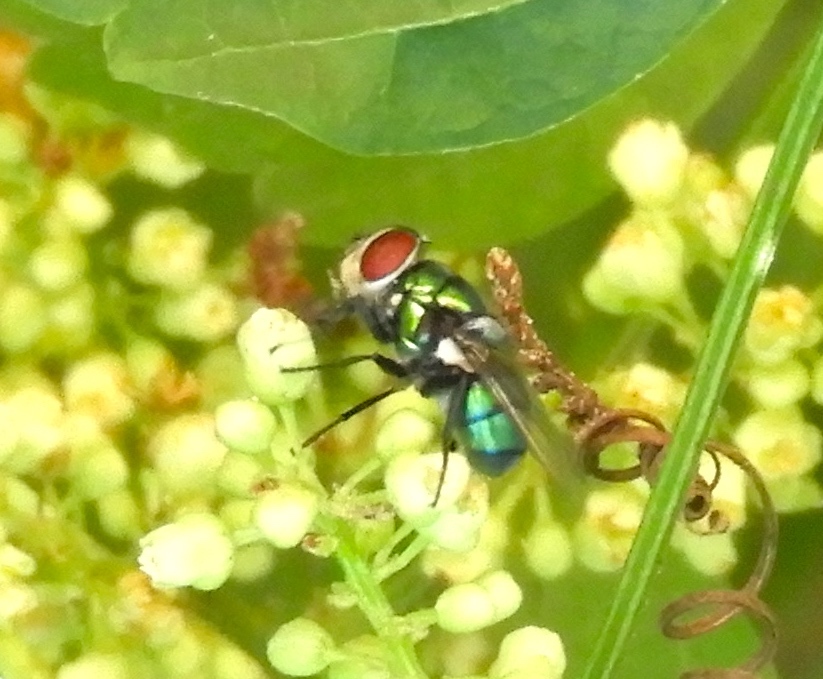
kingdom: Animalia
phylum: Arthropoda
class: Insecta
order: Diptera
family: Calliphoridae
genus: Chrysomya
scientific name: Chrysomya rufifacies
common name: Blow fly
